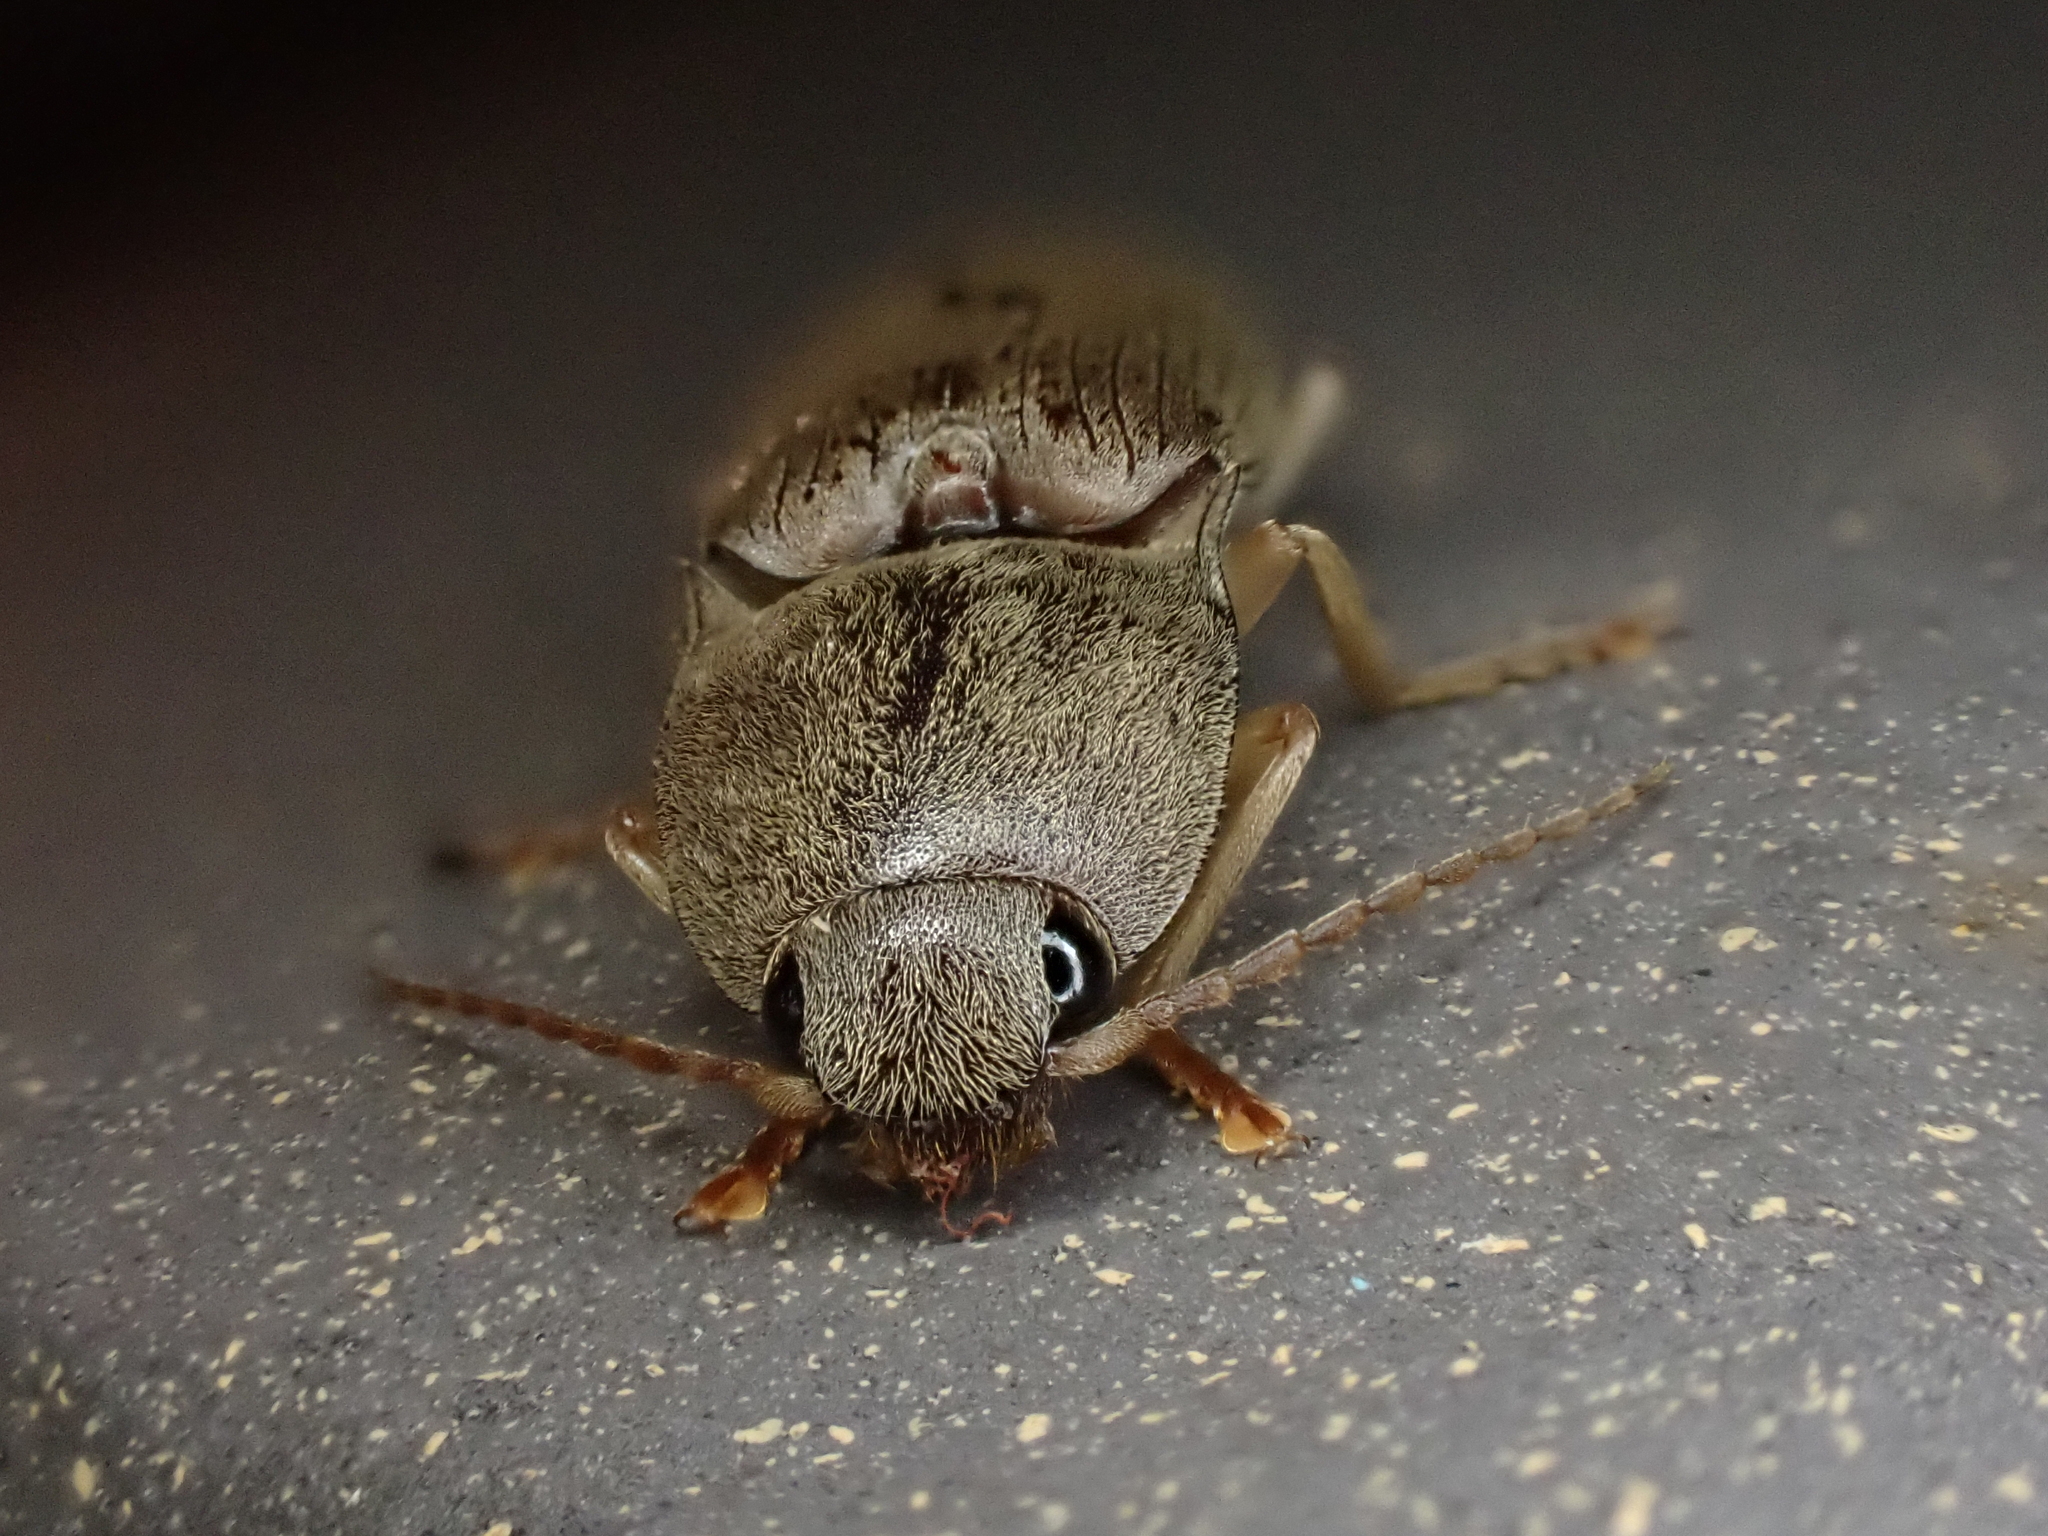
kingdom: Animalia
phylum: Arthropoda
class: Insecta
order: Coleoptera
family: Elateridae
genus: Monocrepidius
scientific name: Monocrepidius lividus
